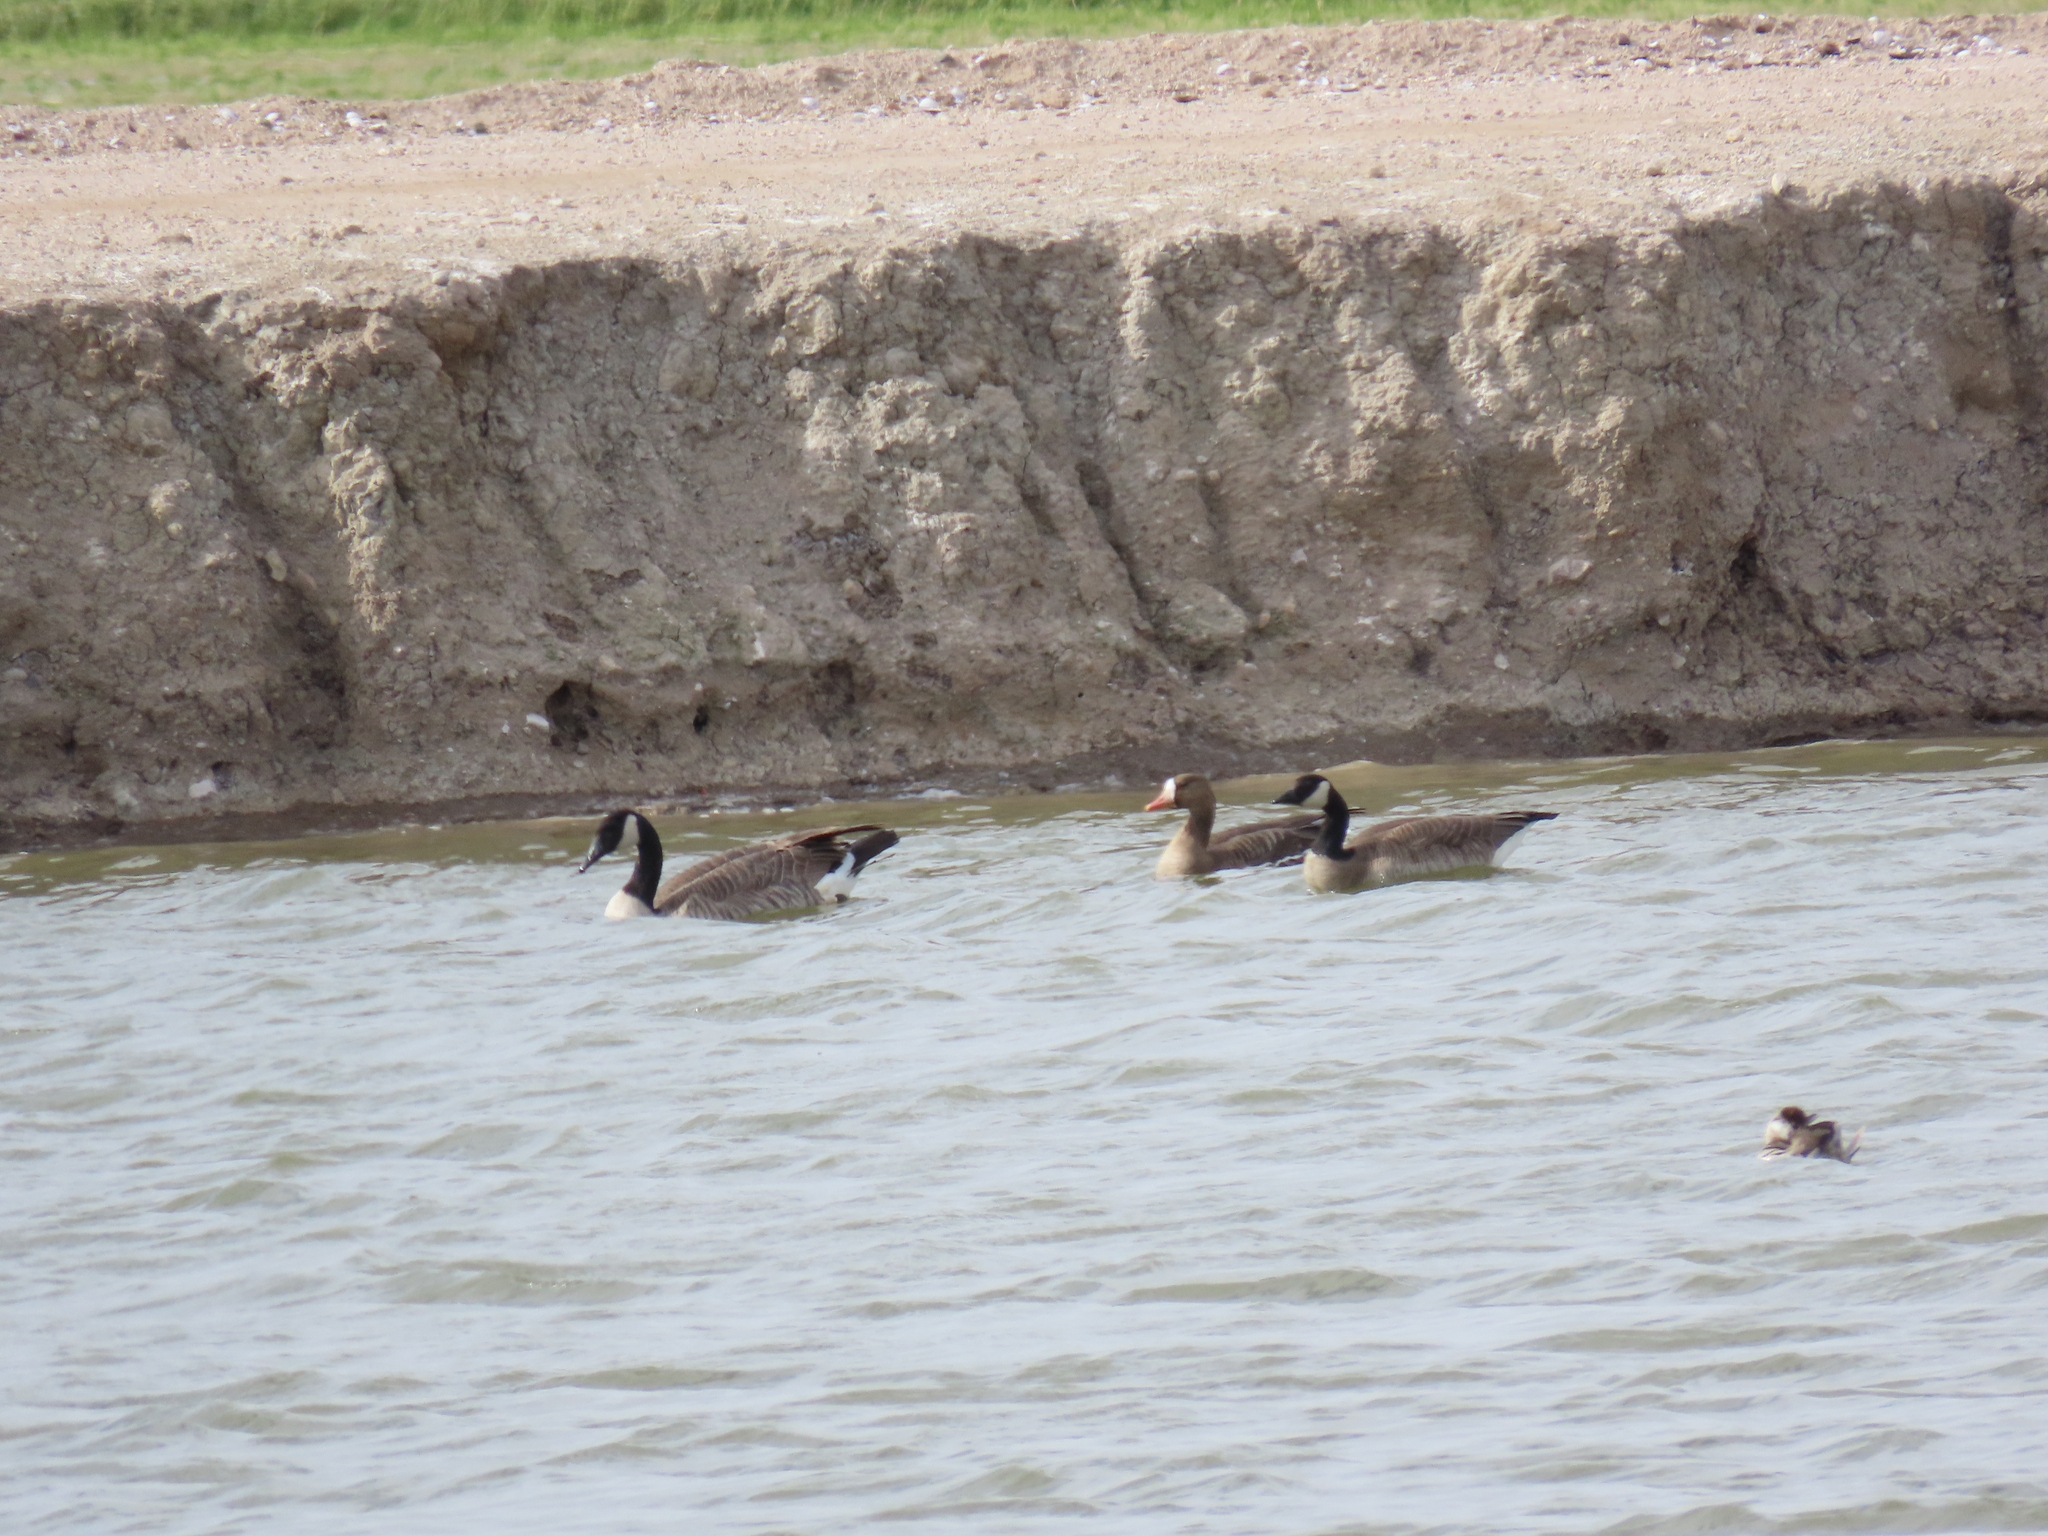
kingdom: Animalia
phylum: Chordata
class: Aves
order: Anseriformes
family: Anatidae
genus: Anser
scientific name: Anser albifrons
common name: Greater white-fronted goose
